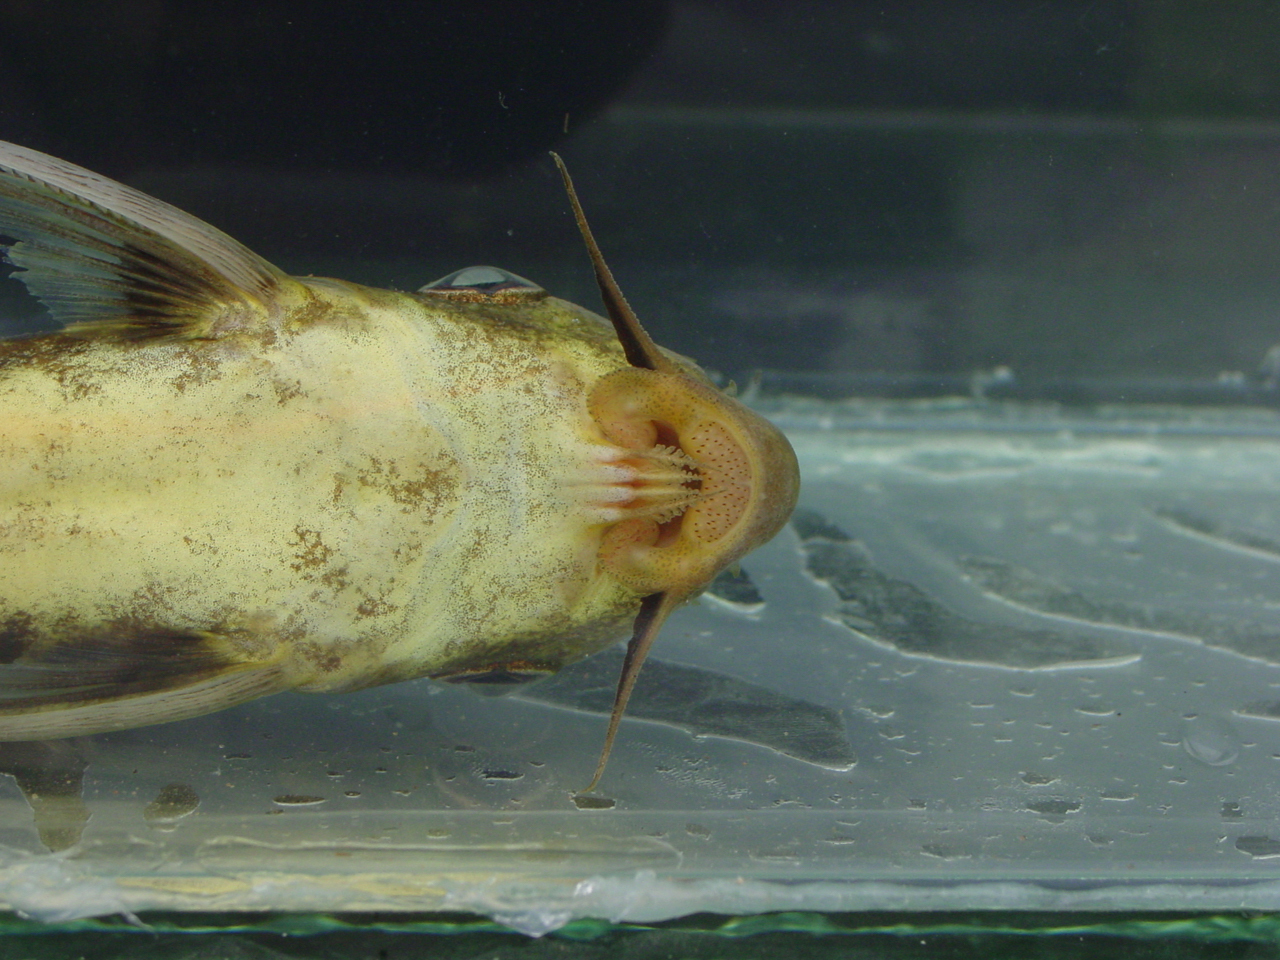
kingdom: Animalia
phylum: Chordata
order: Siluriformes
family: Mochokidae
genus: Synodontis
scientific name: Synodontis pleurops
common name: Bigeye squeaker
